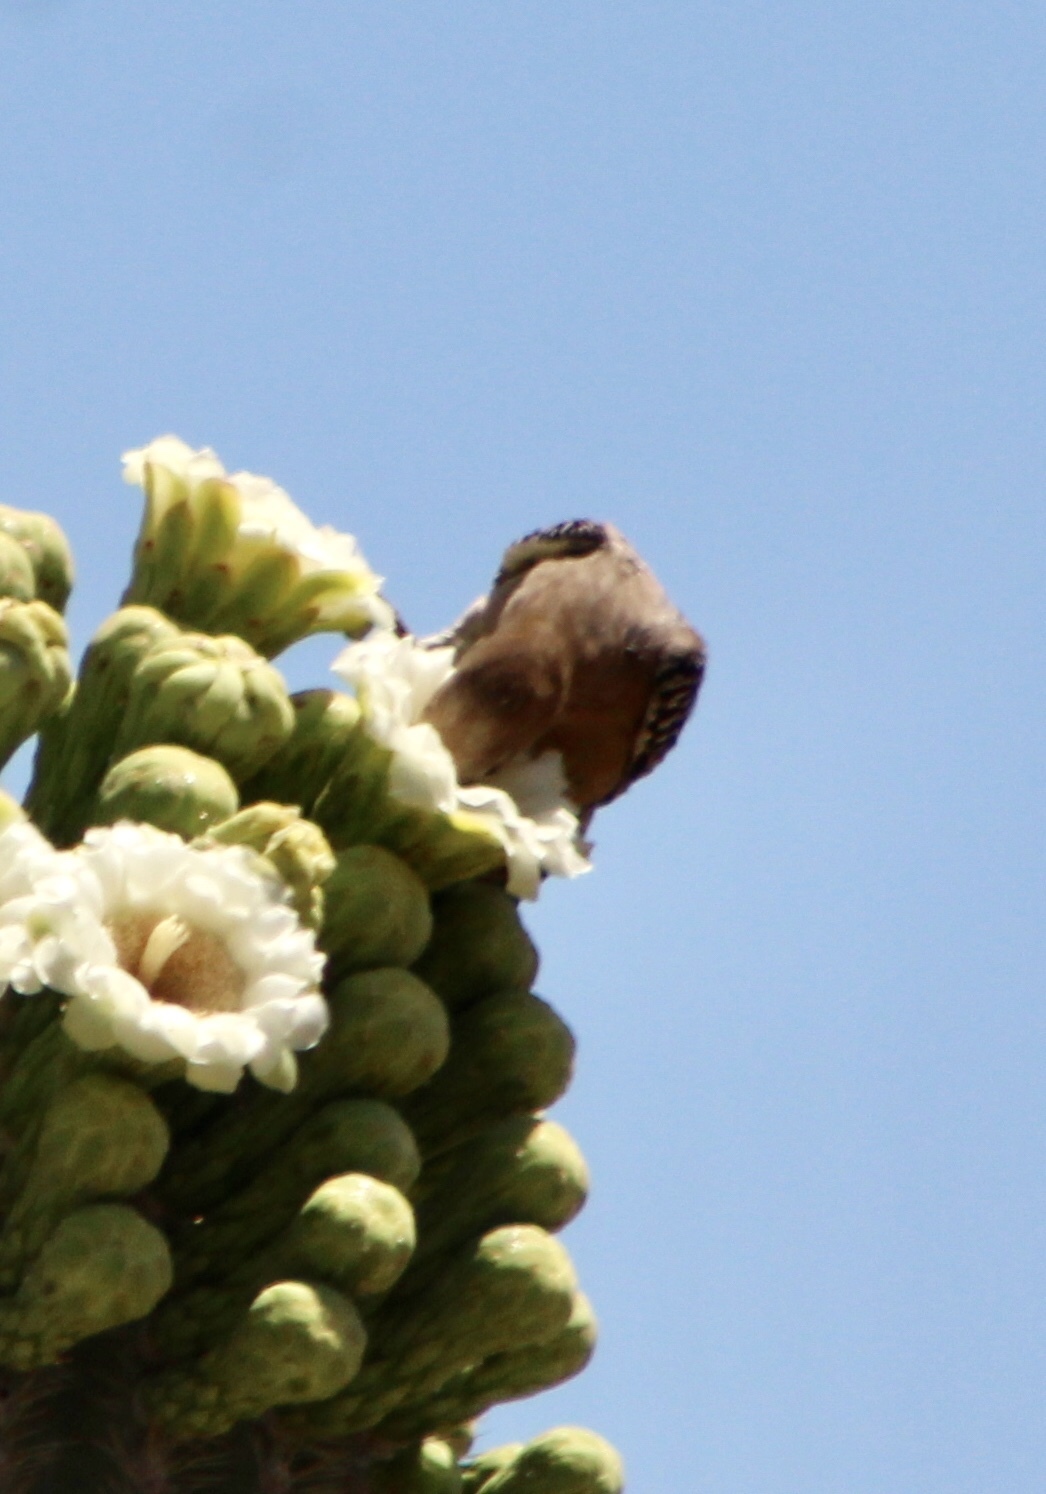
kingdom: Animalia
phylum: Chordata
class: Aves
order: Piciformes
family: Picidae
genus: Melanerpes
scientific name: Melanerpes uropygialis
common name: Gila woodpecker
